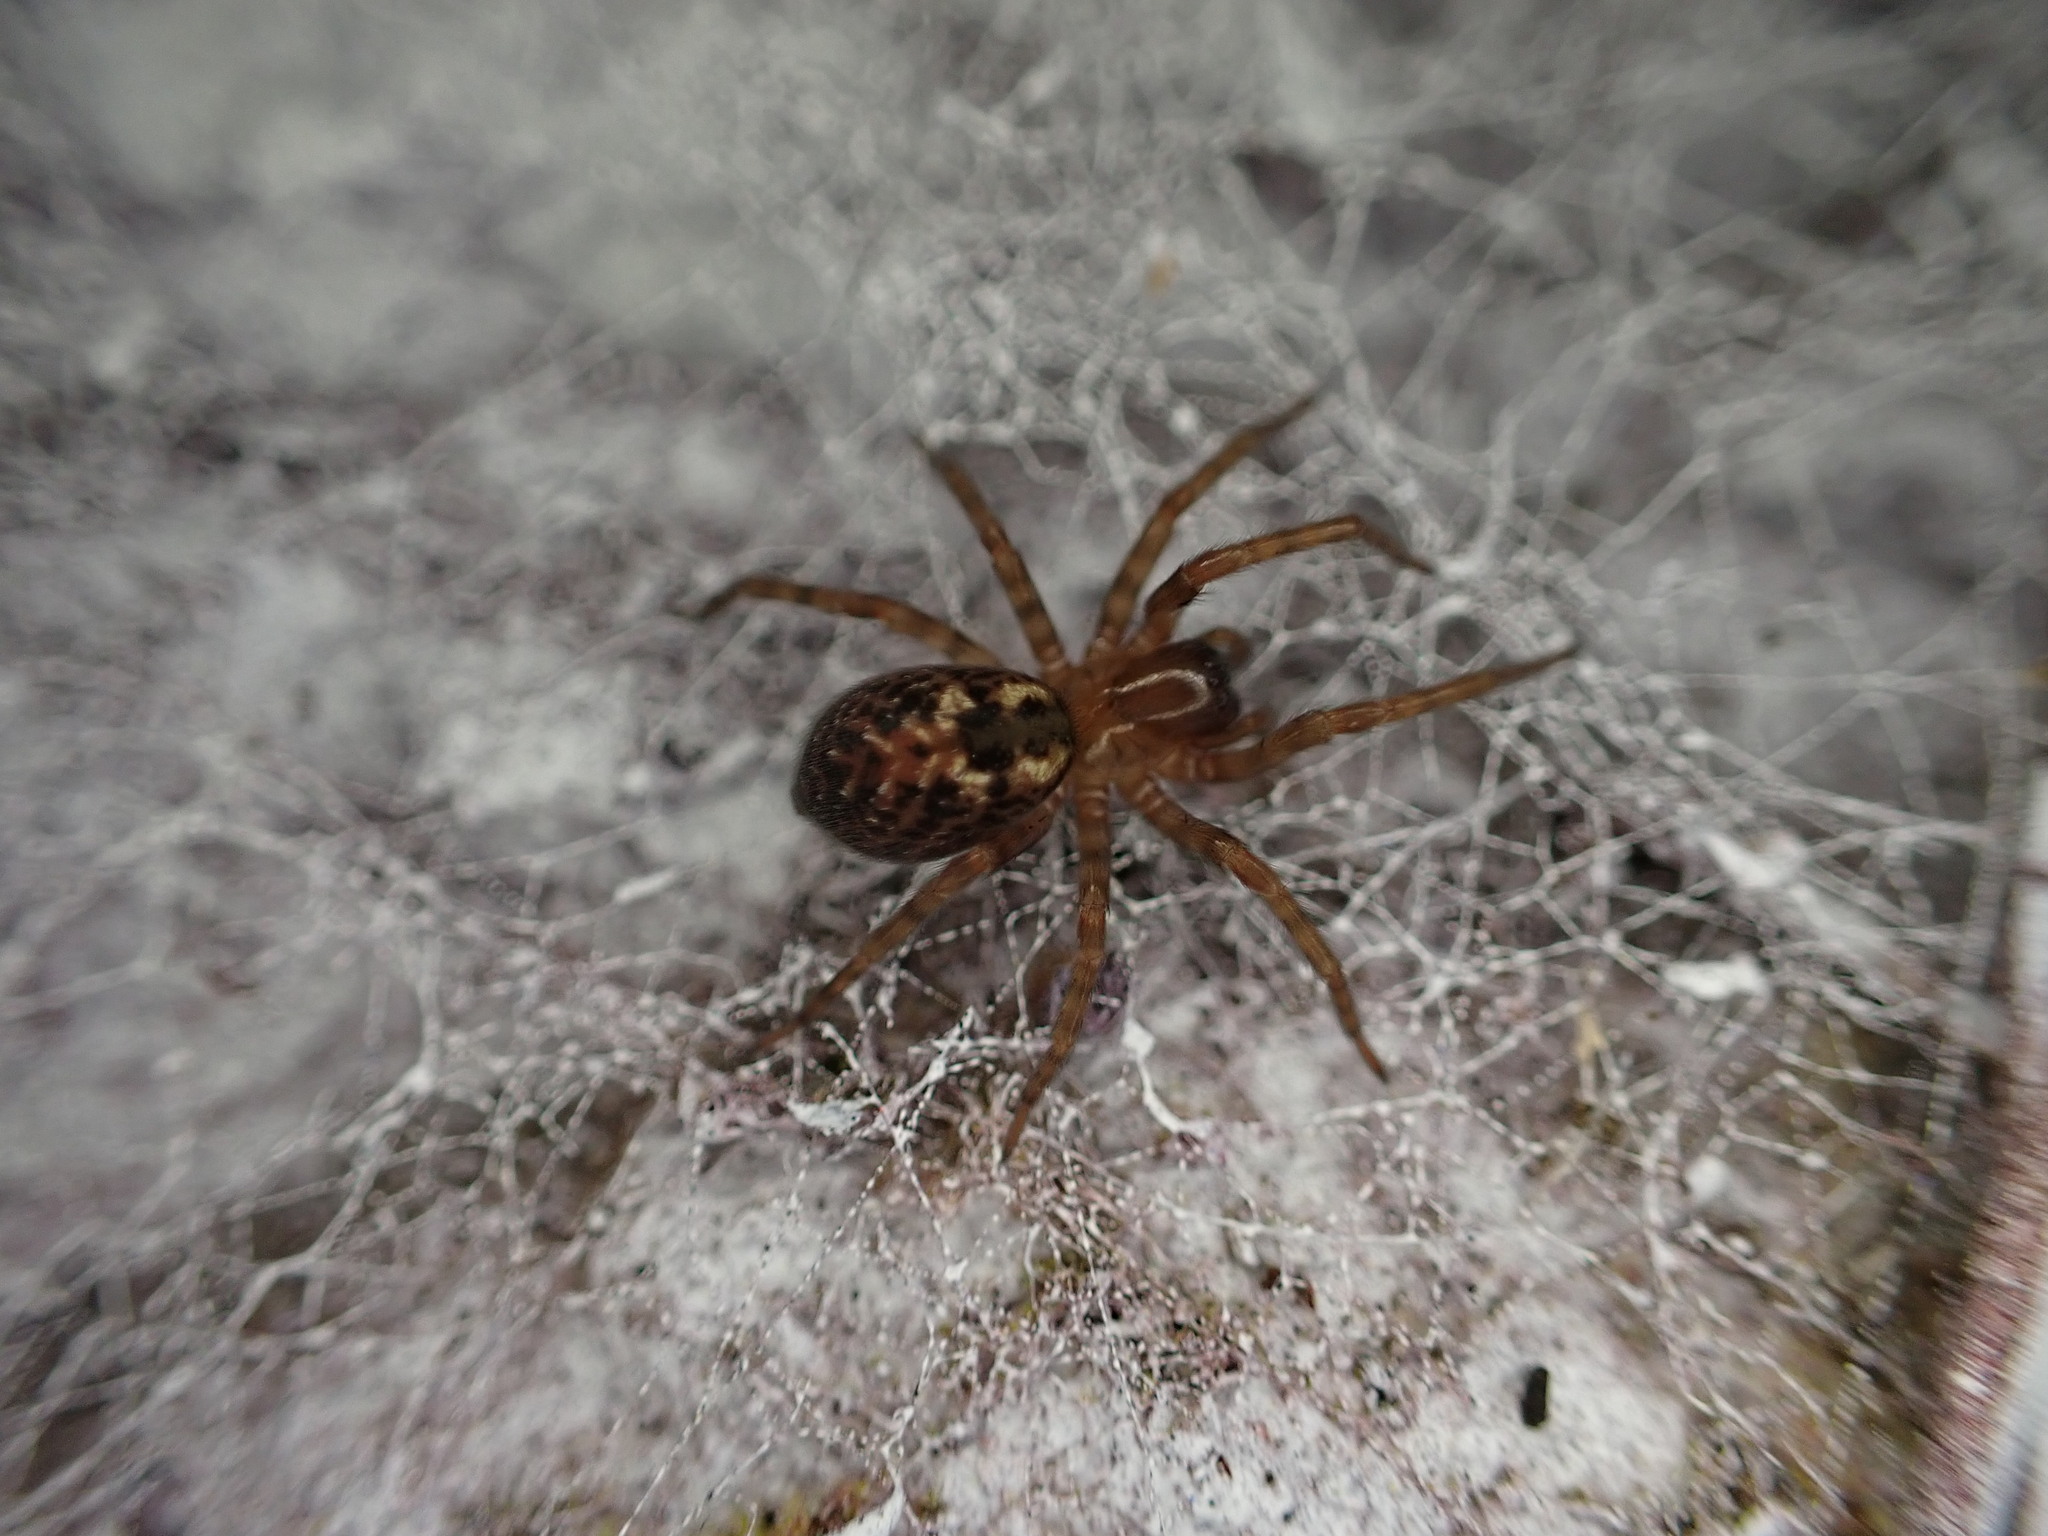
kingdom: Animalia
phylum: Arthropoda
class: Arachnida
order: Araneae
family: Amaurobiidae
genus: Amaurobius
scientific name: Amaurobius
